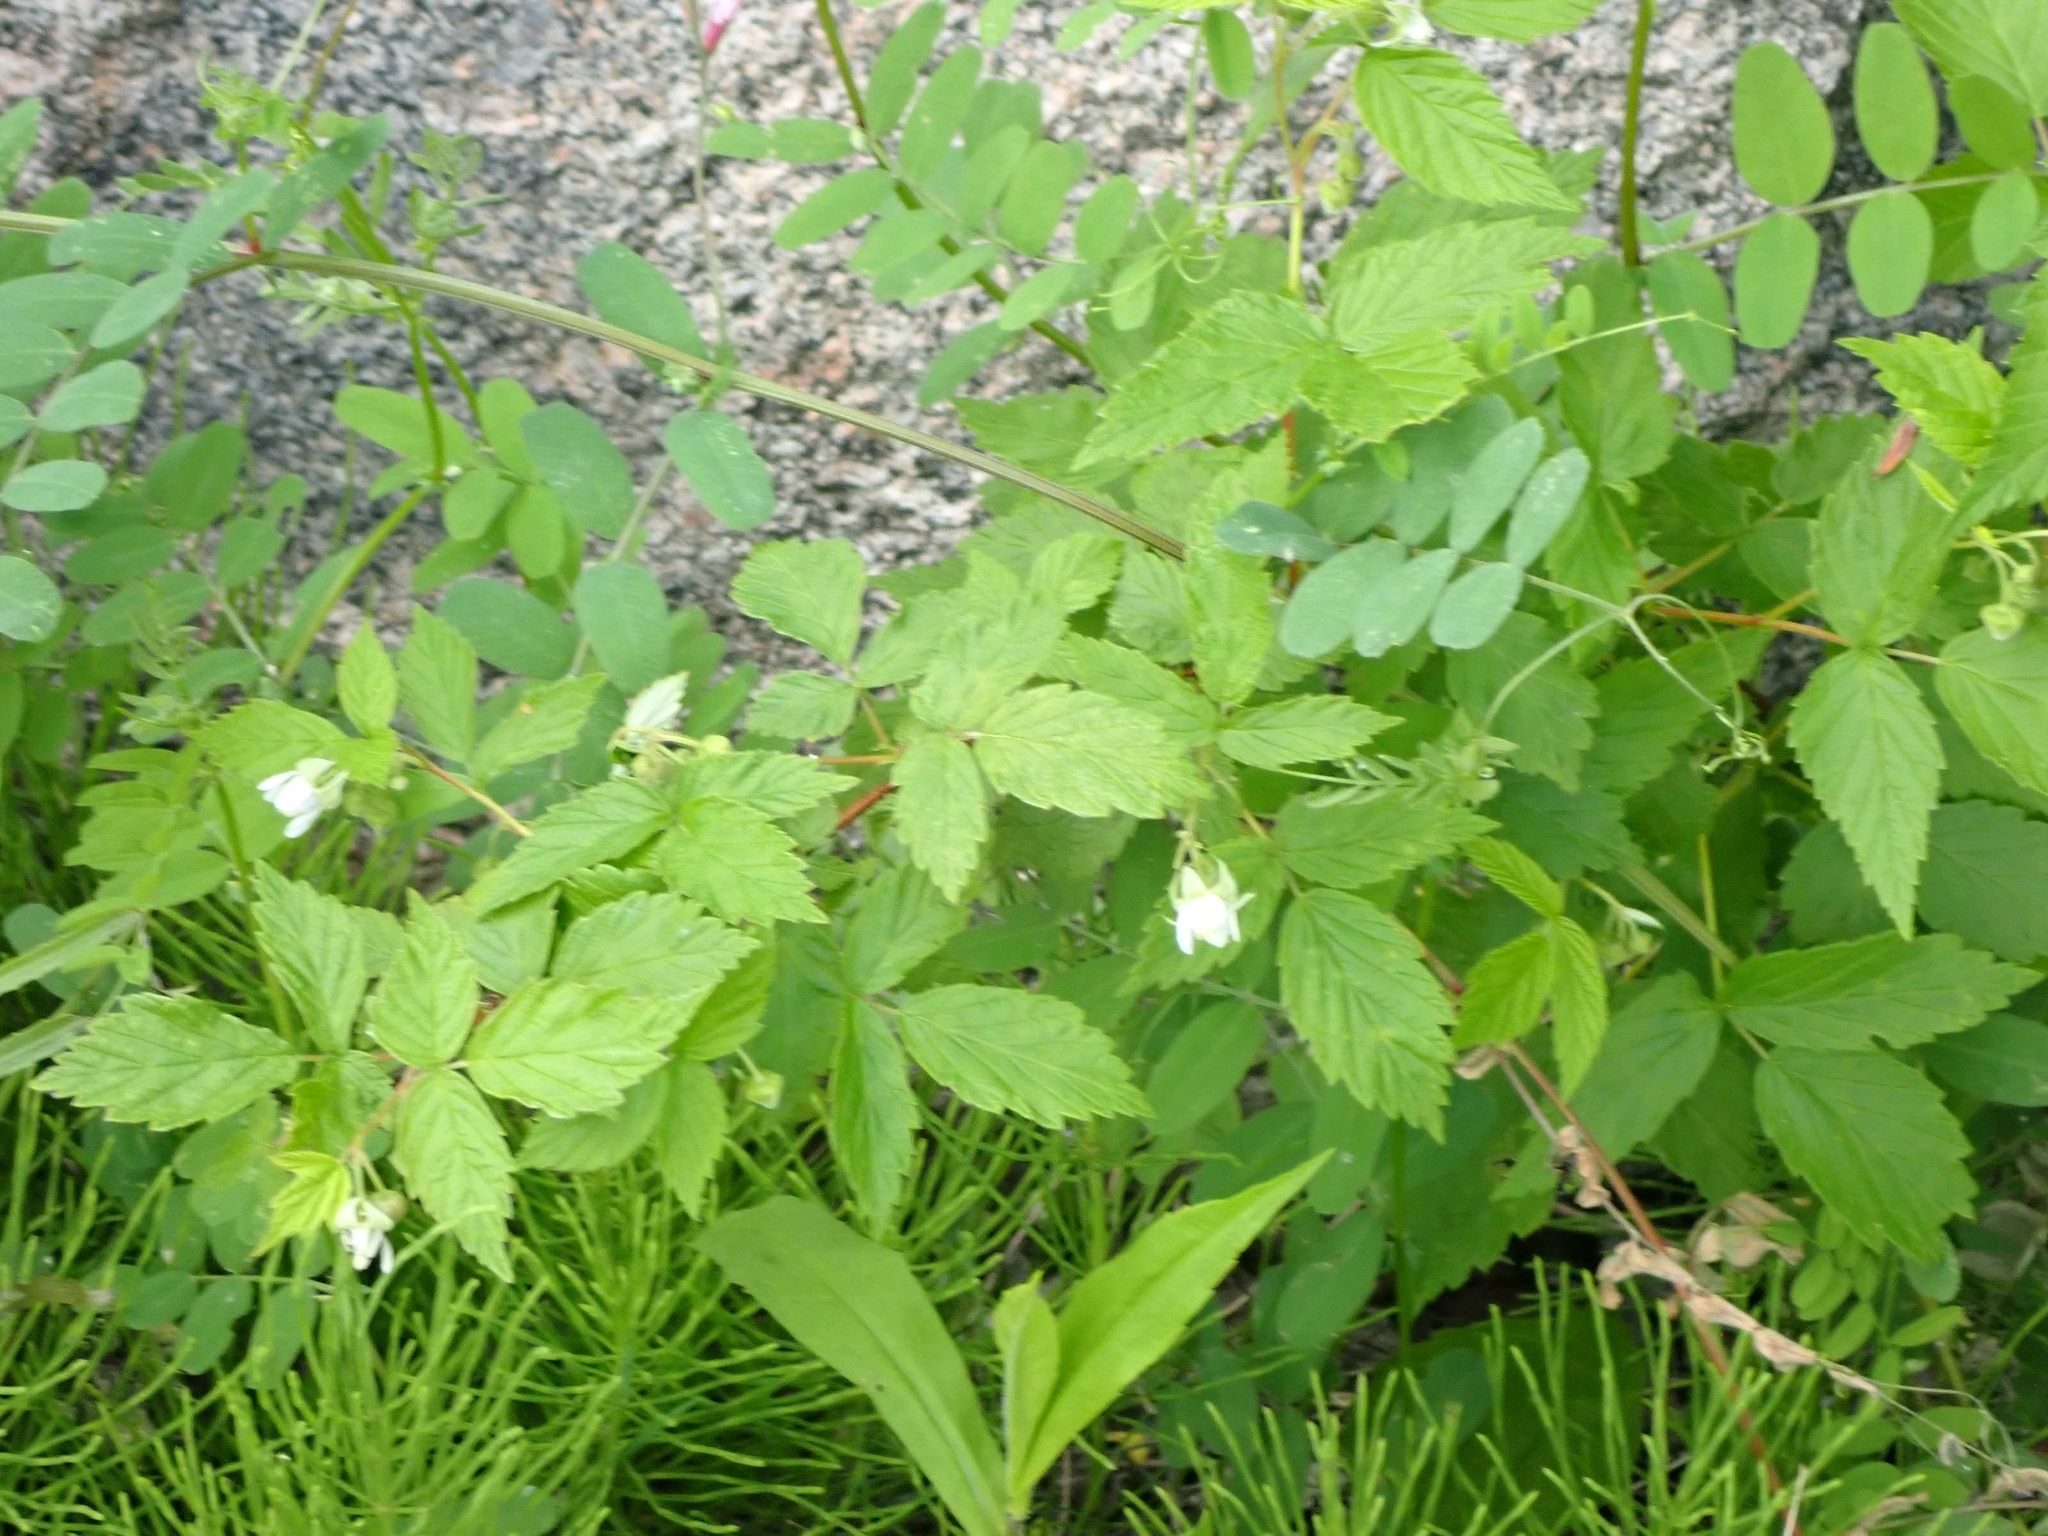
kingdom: Plantae
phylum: Tracheophyta
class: Magnoliopsida
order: Rosales
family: Rosaceae
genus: Rubus
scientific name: Rubus idaeus
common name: Raspberry
